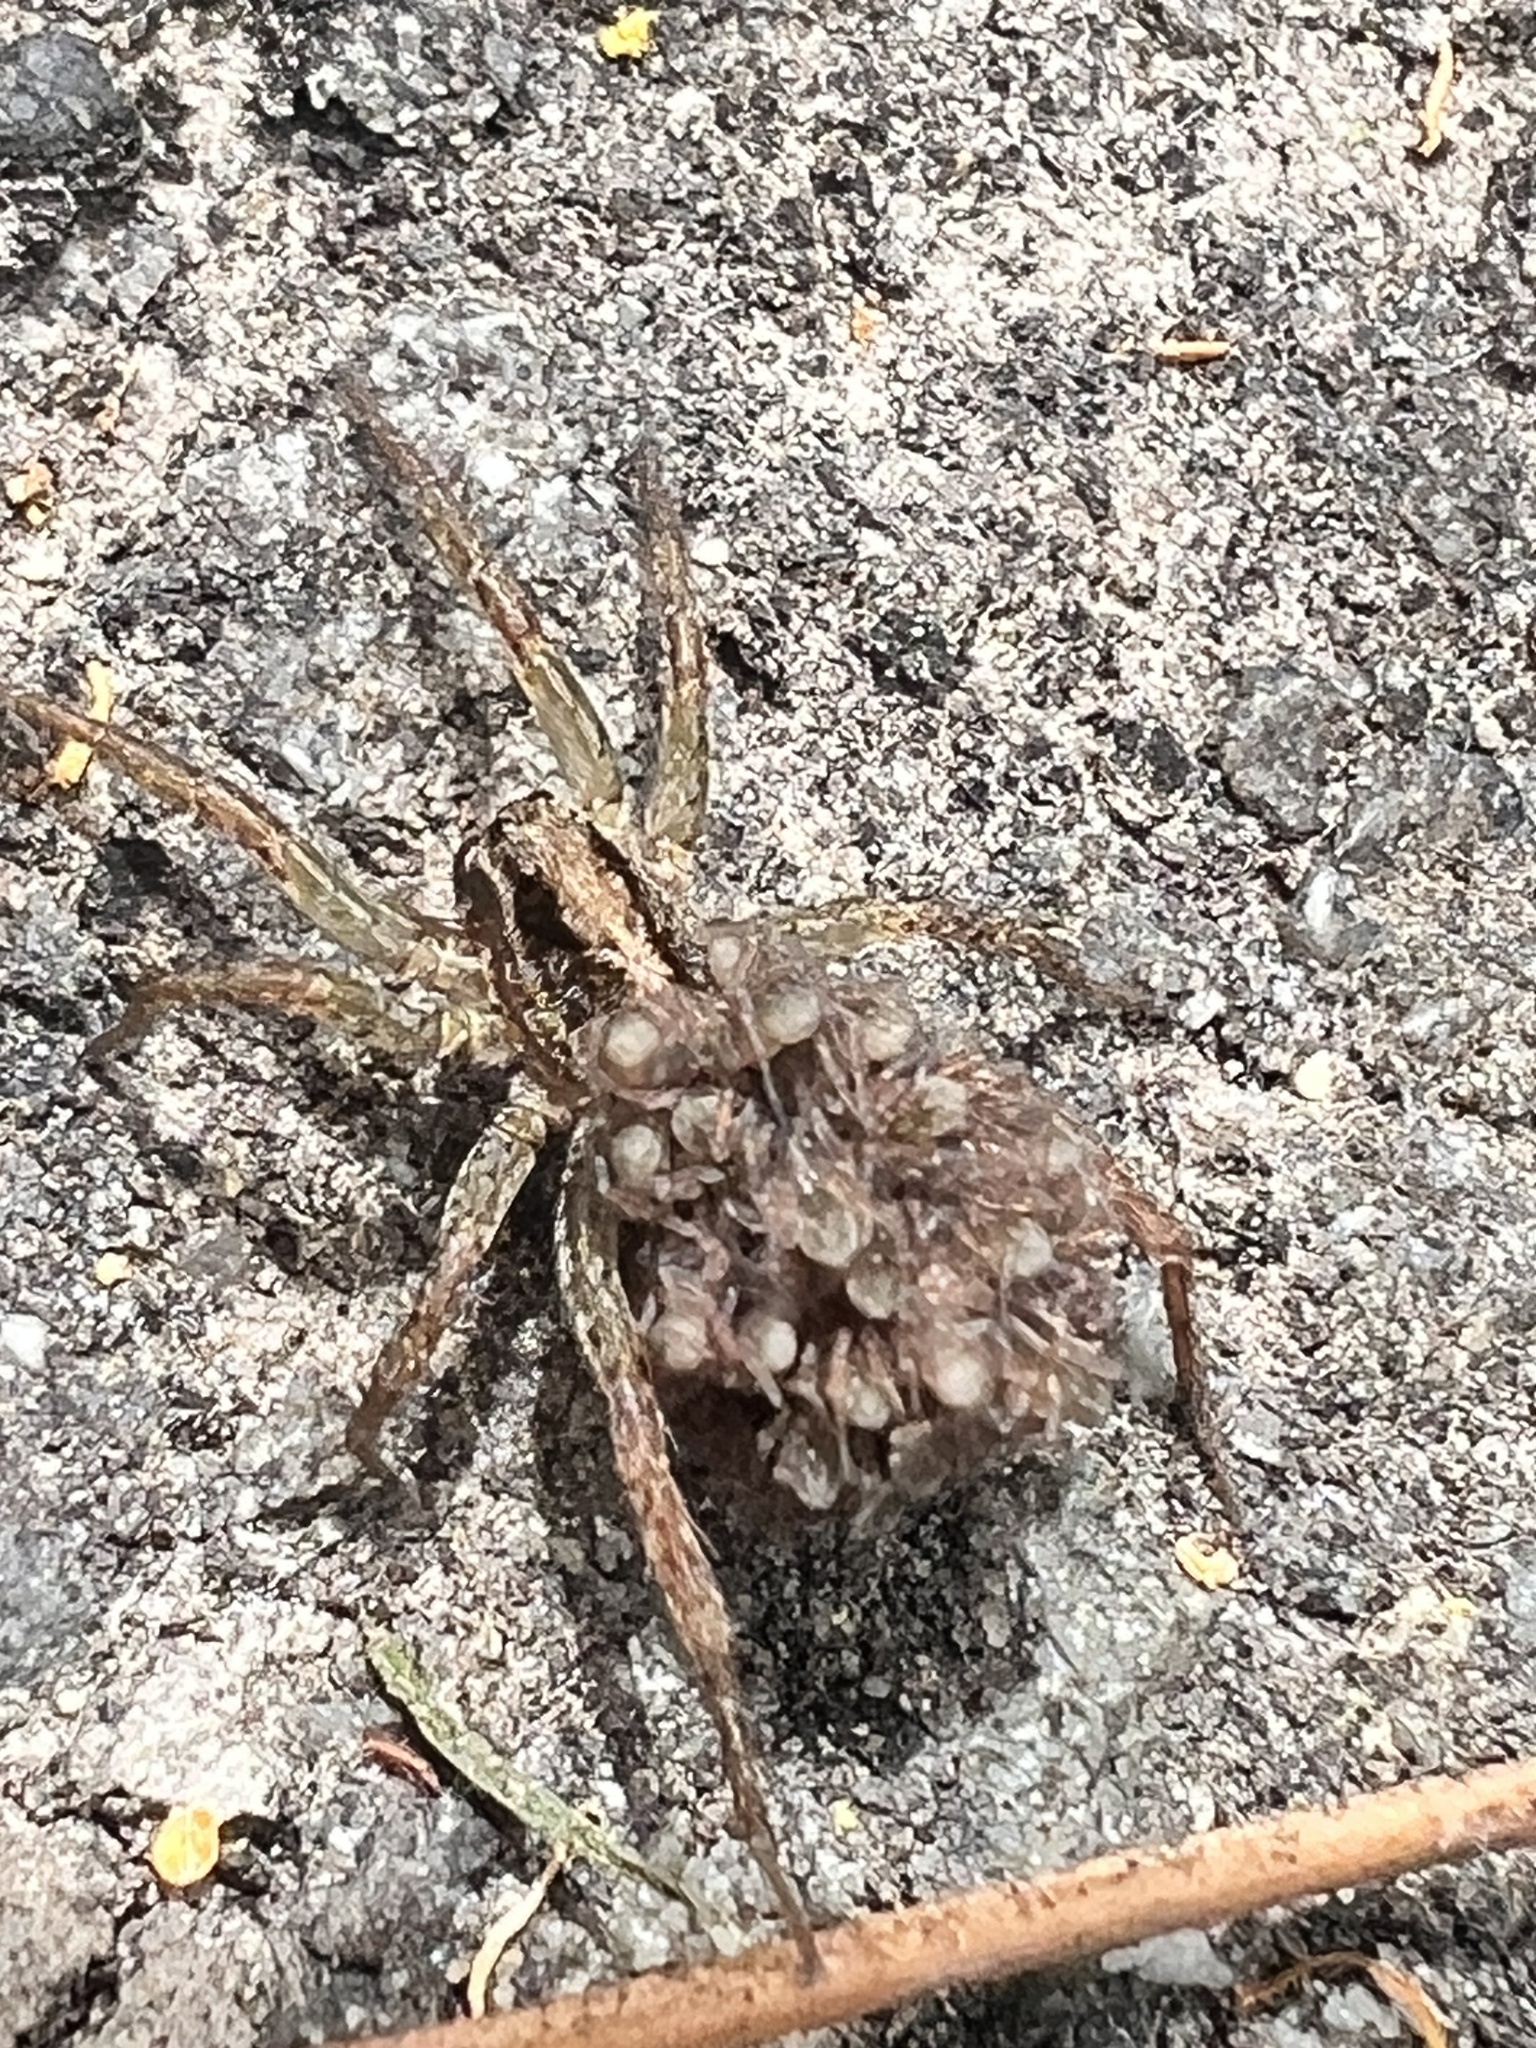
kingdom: Animalia
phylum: Arthropoda
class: Arachnida
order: Araneae
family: Lycosidae
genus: Anoteropsis
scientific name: Anoteropsis hilaris
